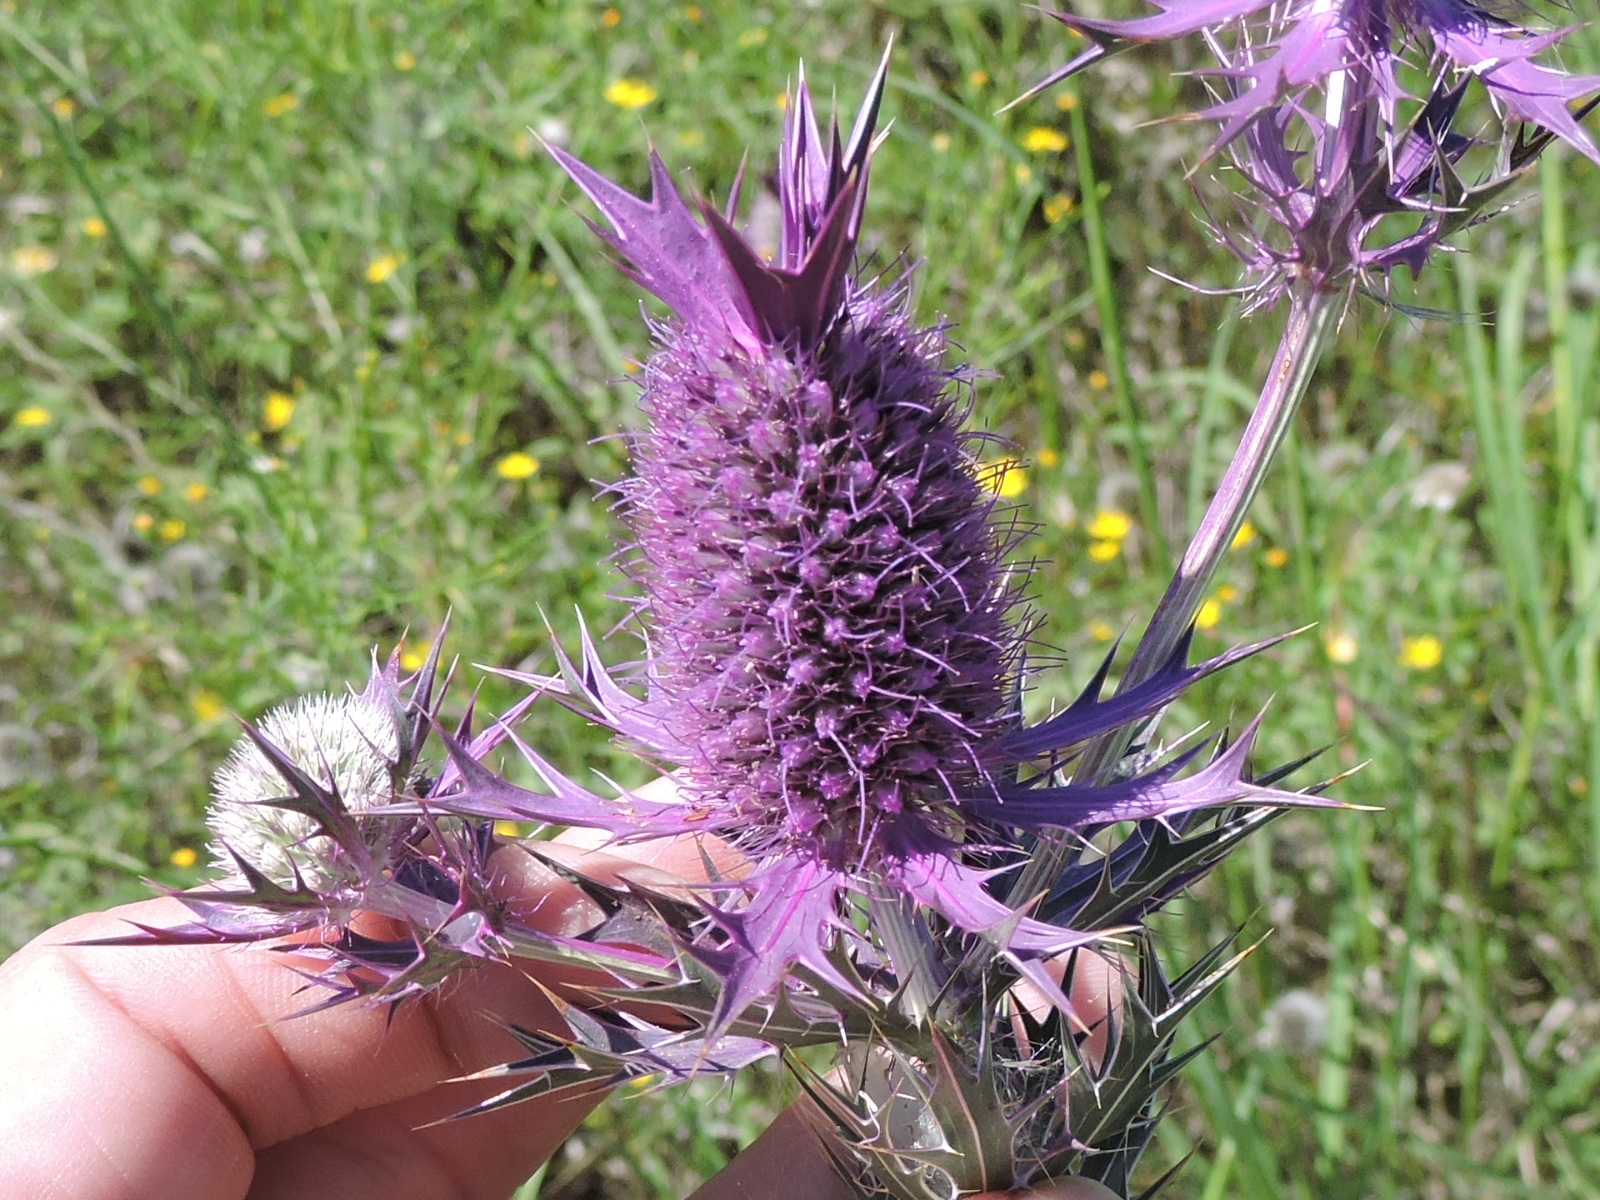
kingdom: Plantae
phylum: Tracheophyta
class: Magnoliopsida
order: Apiales
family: Apiaceae
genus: Eryngium
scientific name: Eryngium leavenworthii
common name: Leavenworth's eryngo
